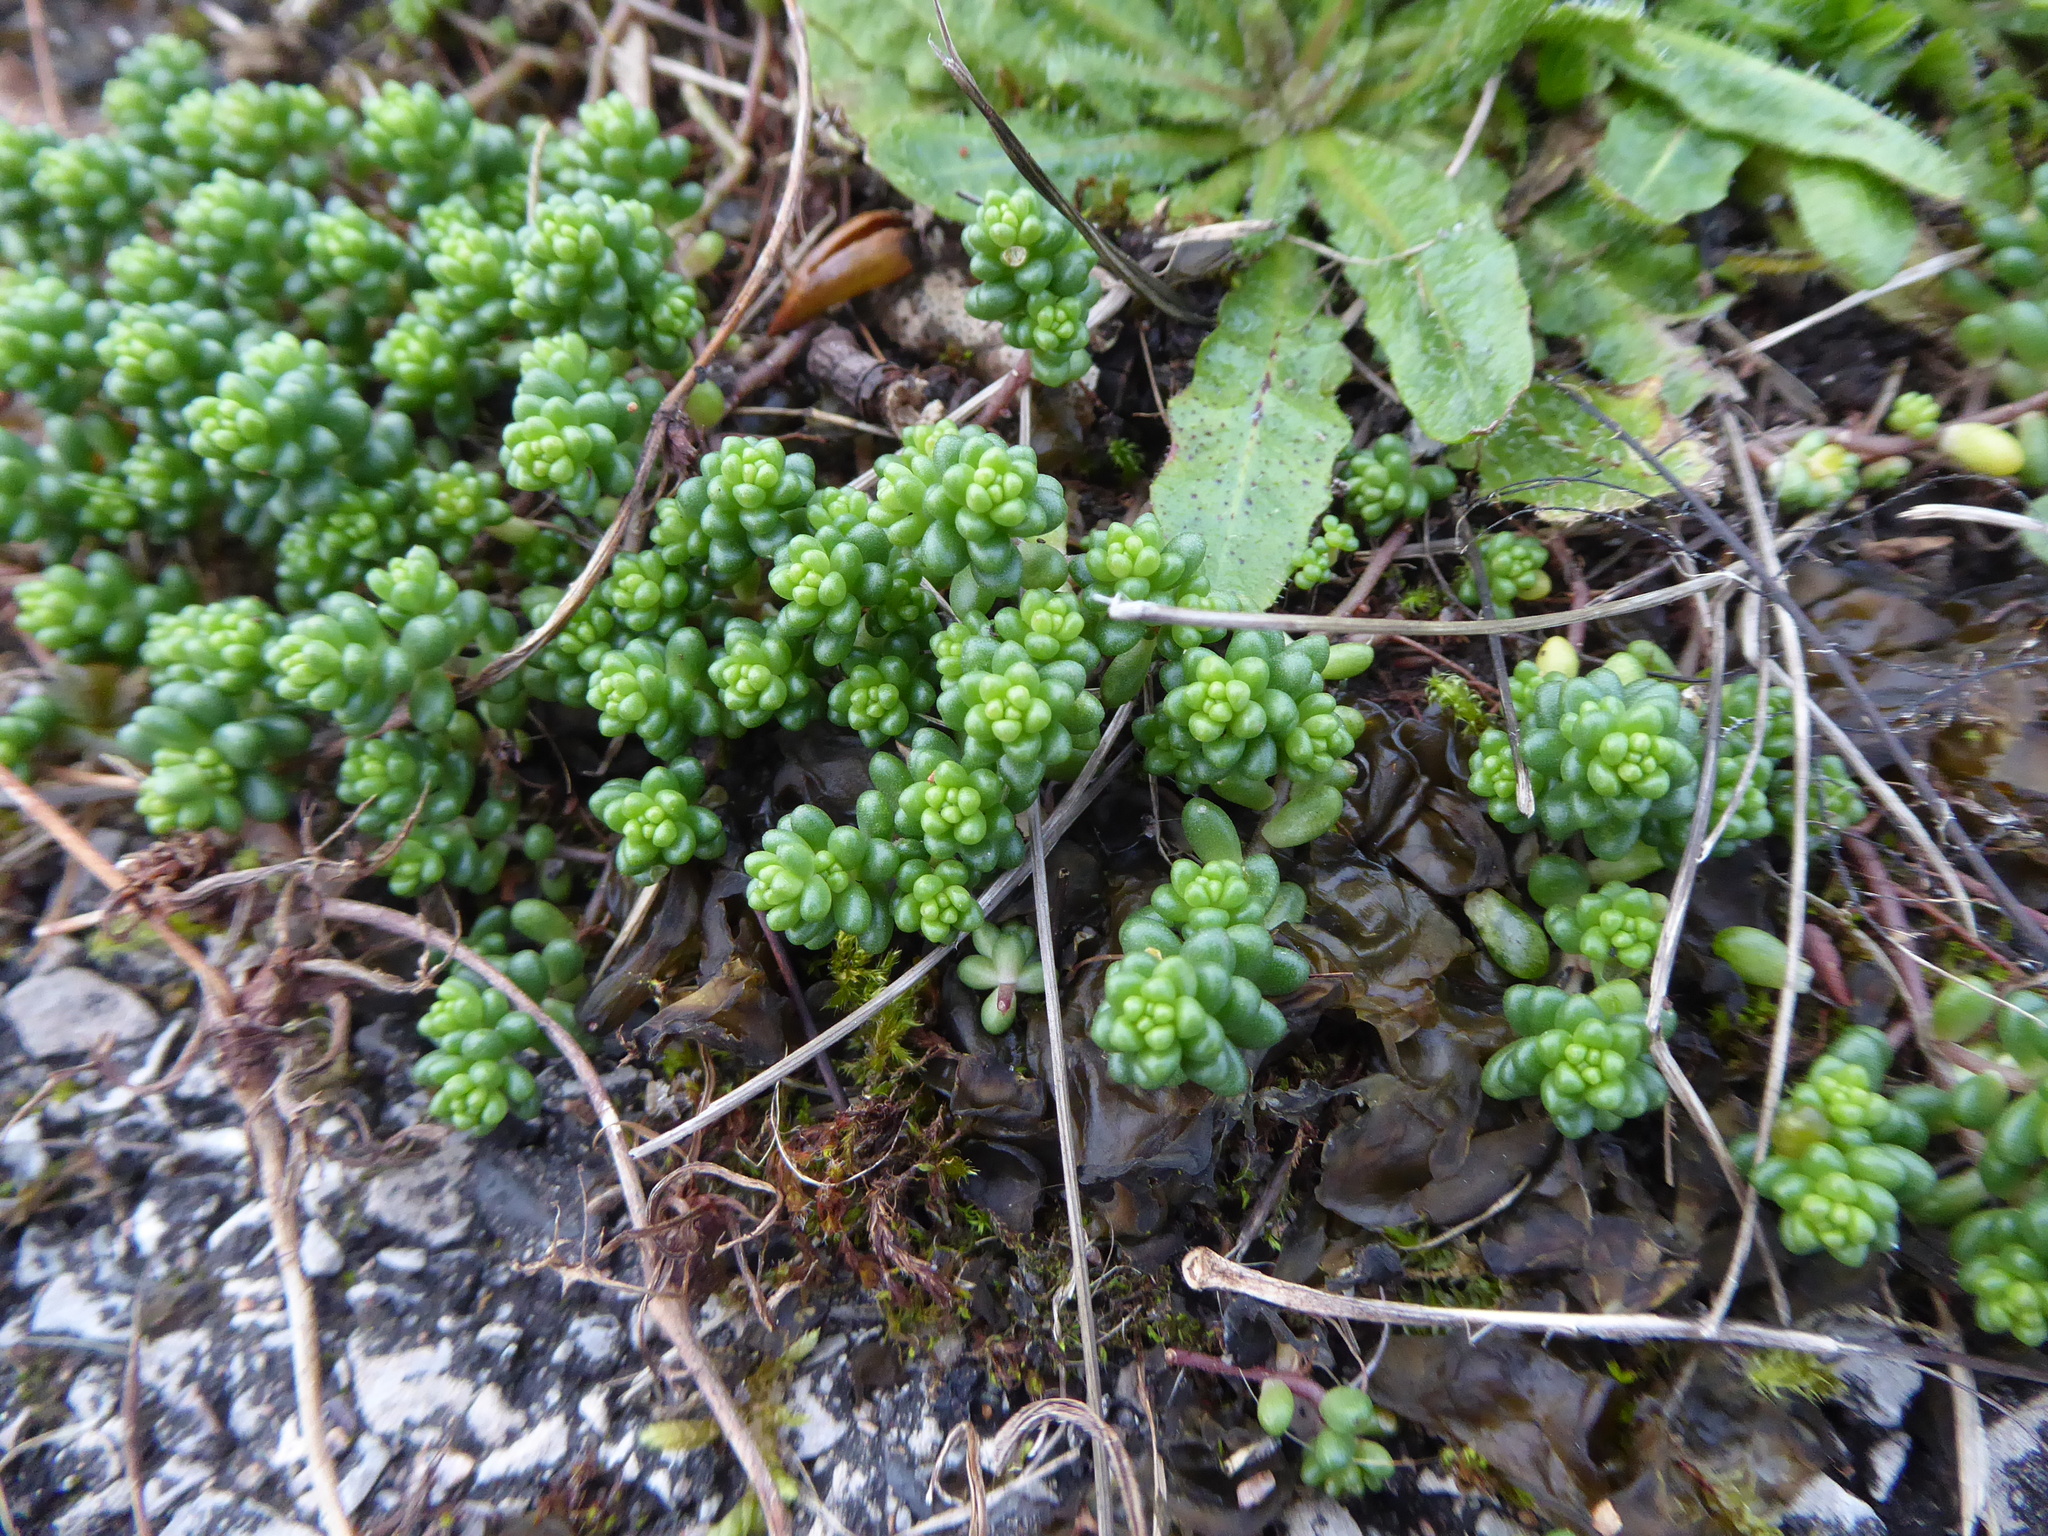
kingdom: Plantae
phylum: Tracheophyta
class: Magnoliopsida
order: Saxifragales
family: Crassulaceae
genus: Sedum
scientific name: Sedum album
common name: White stonecrop
